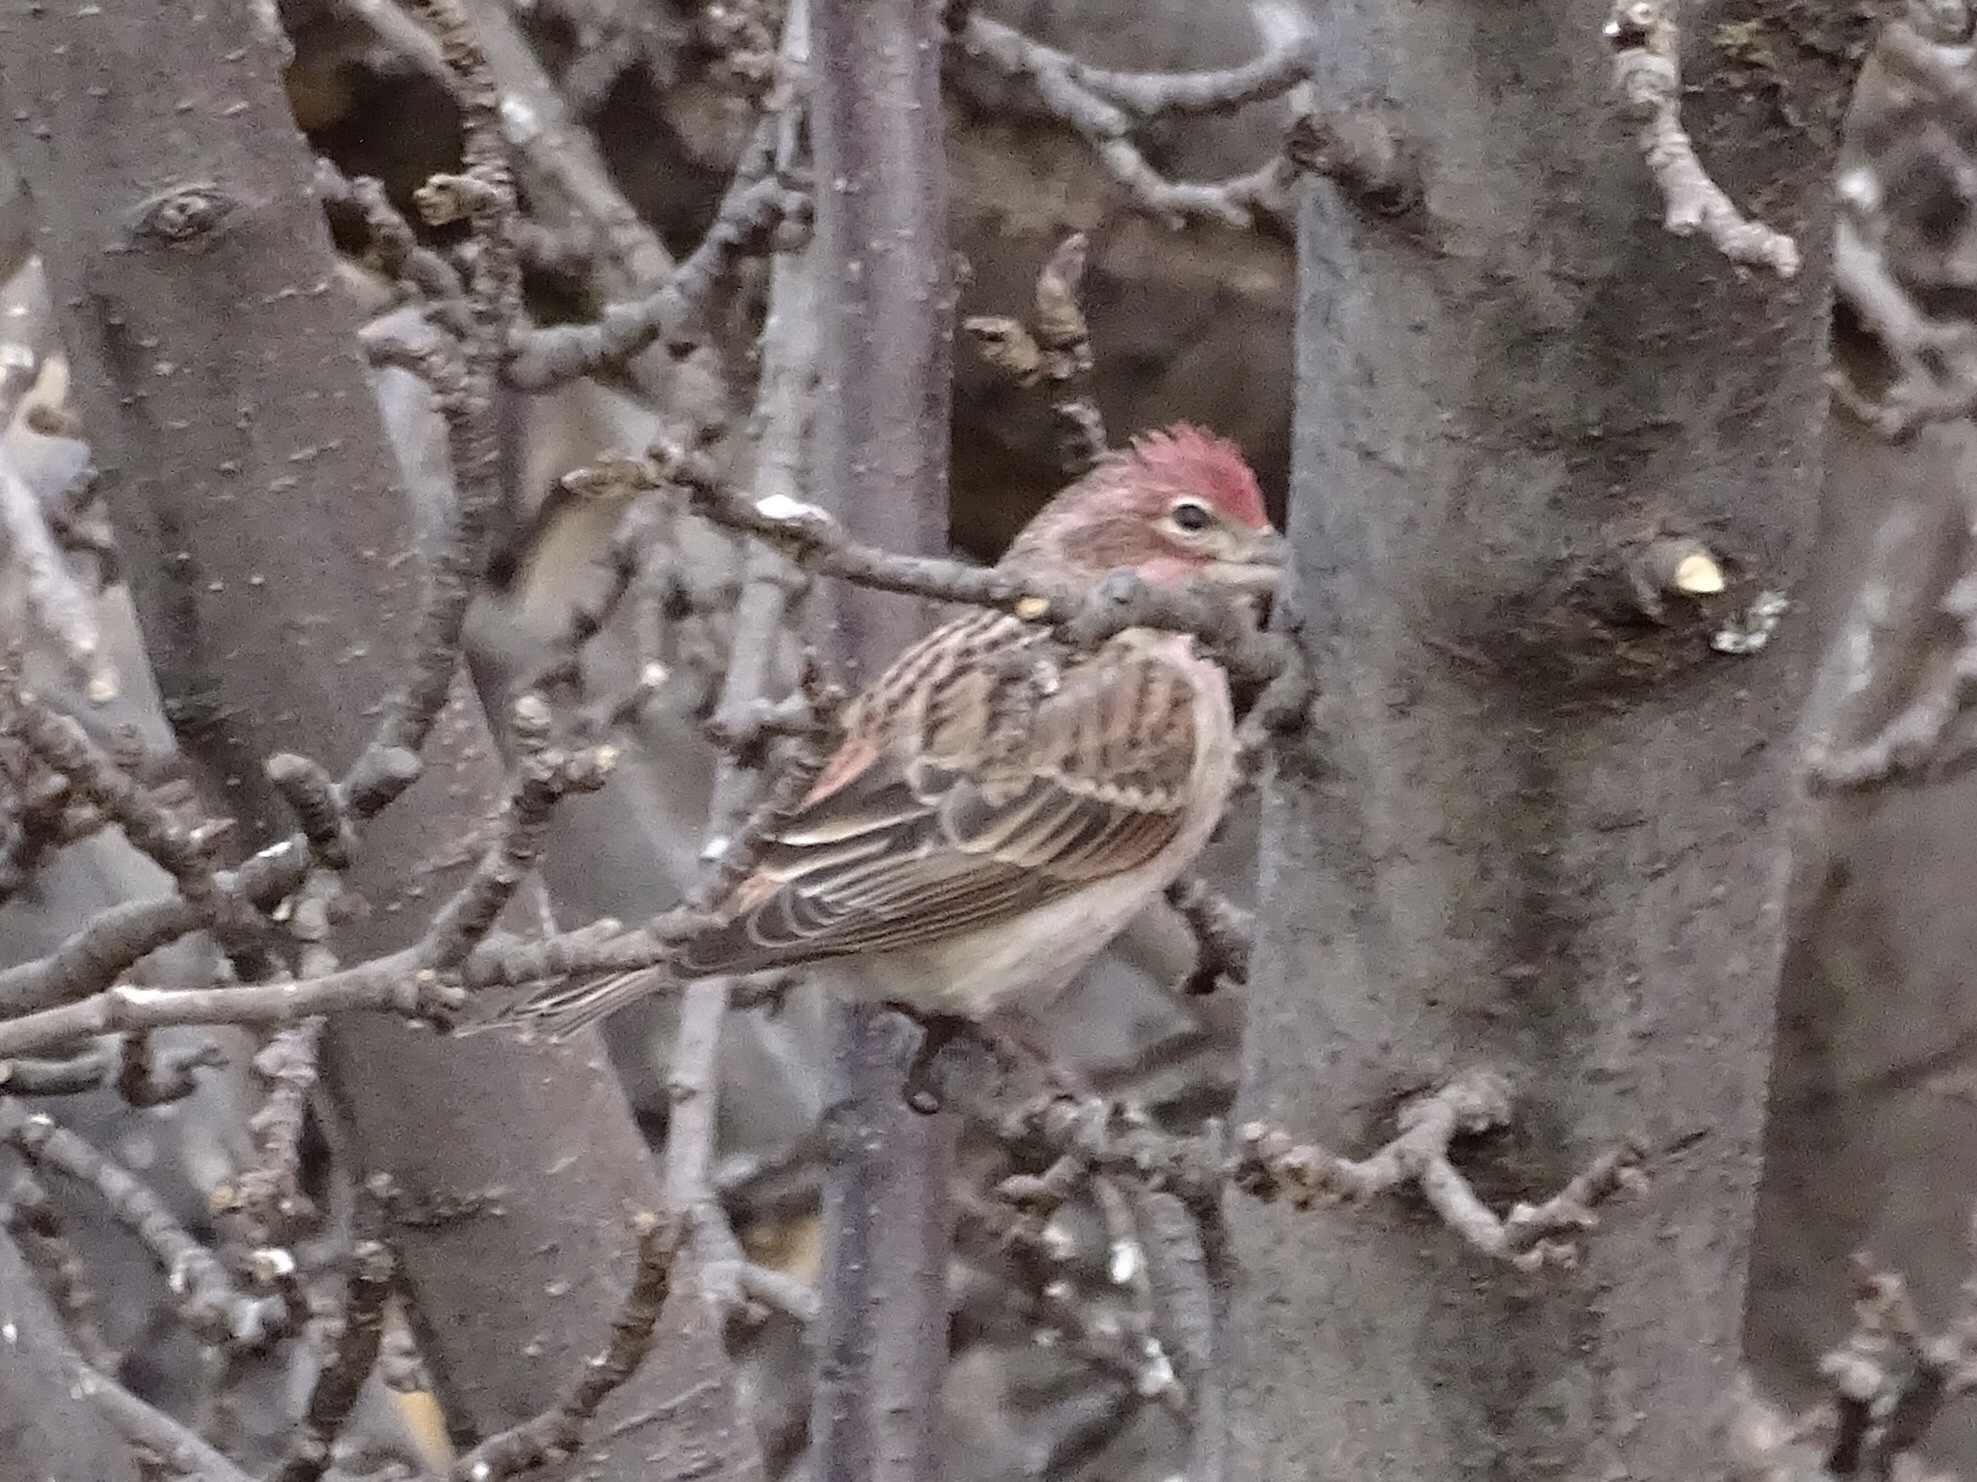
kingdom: Animalia
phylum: Chordata
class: Aves
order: Passeriformes
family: Fringillidae
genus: Haemorhous
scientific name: Haemorhous cassinii
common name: Cassin's finch
